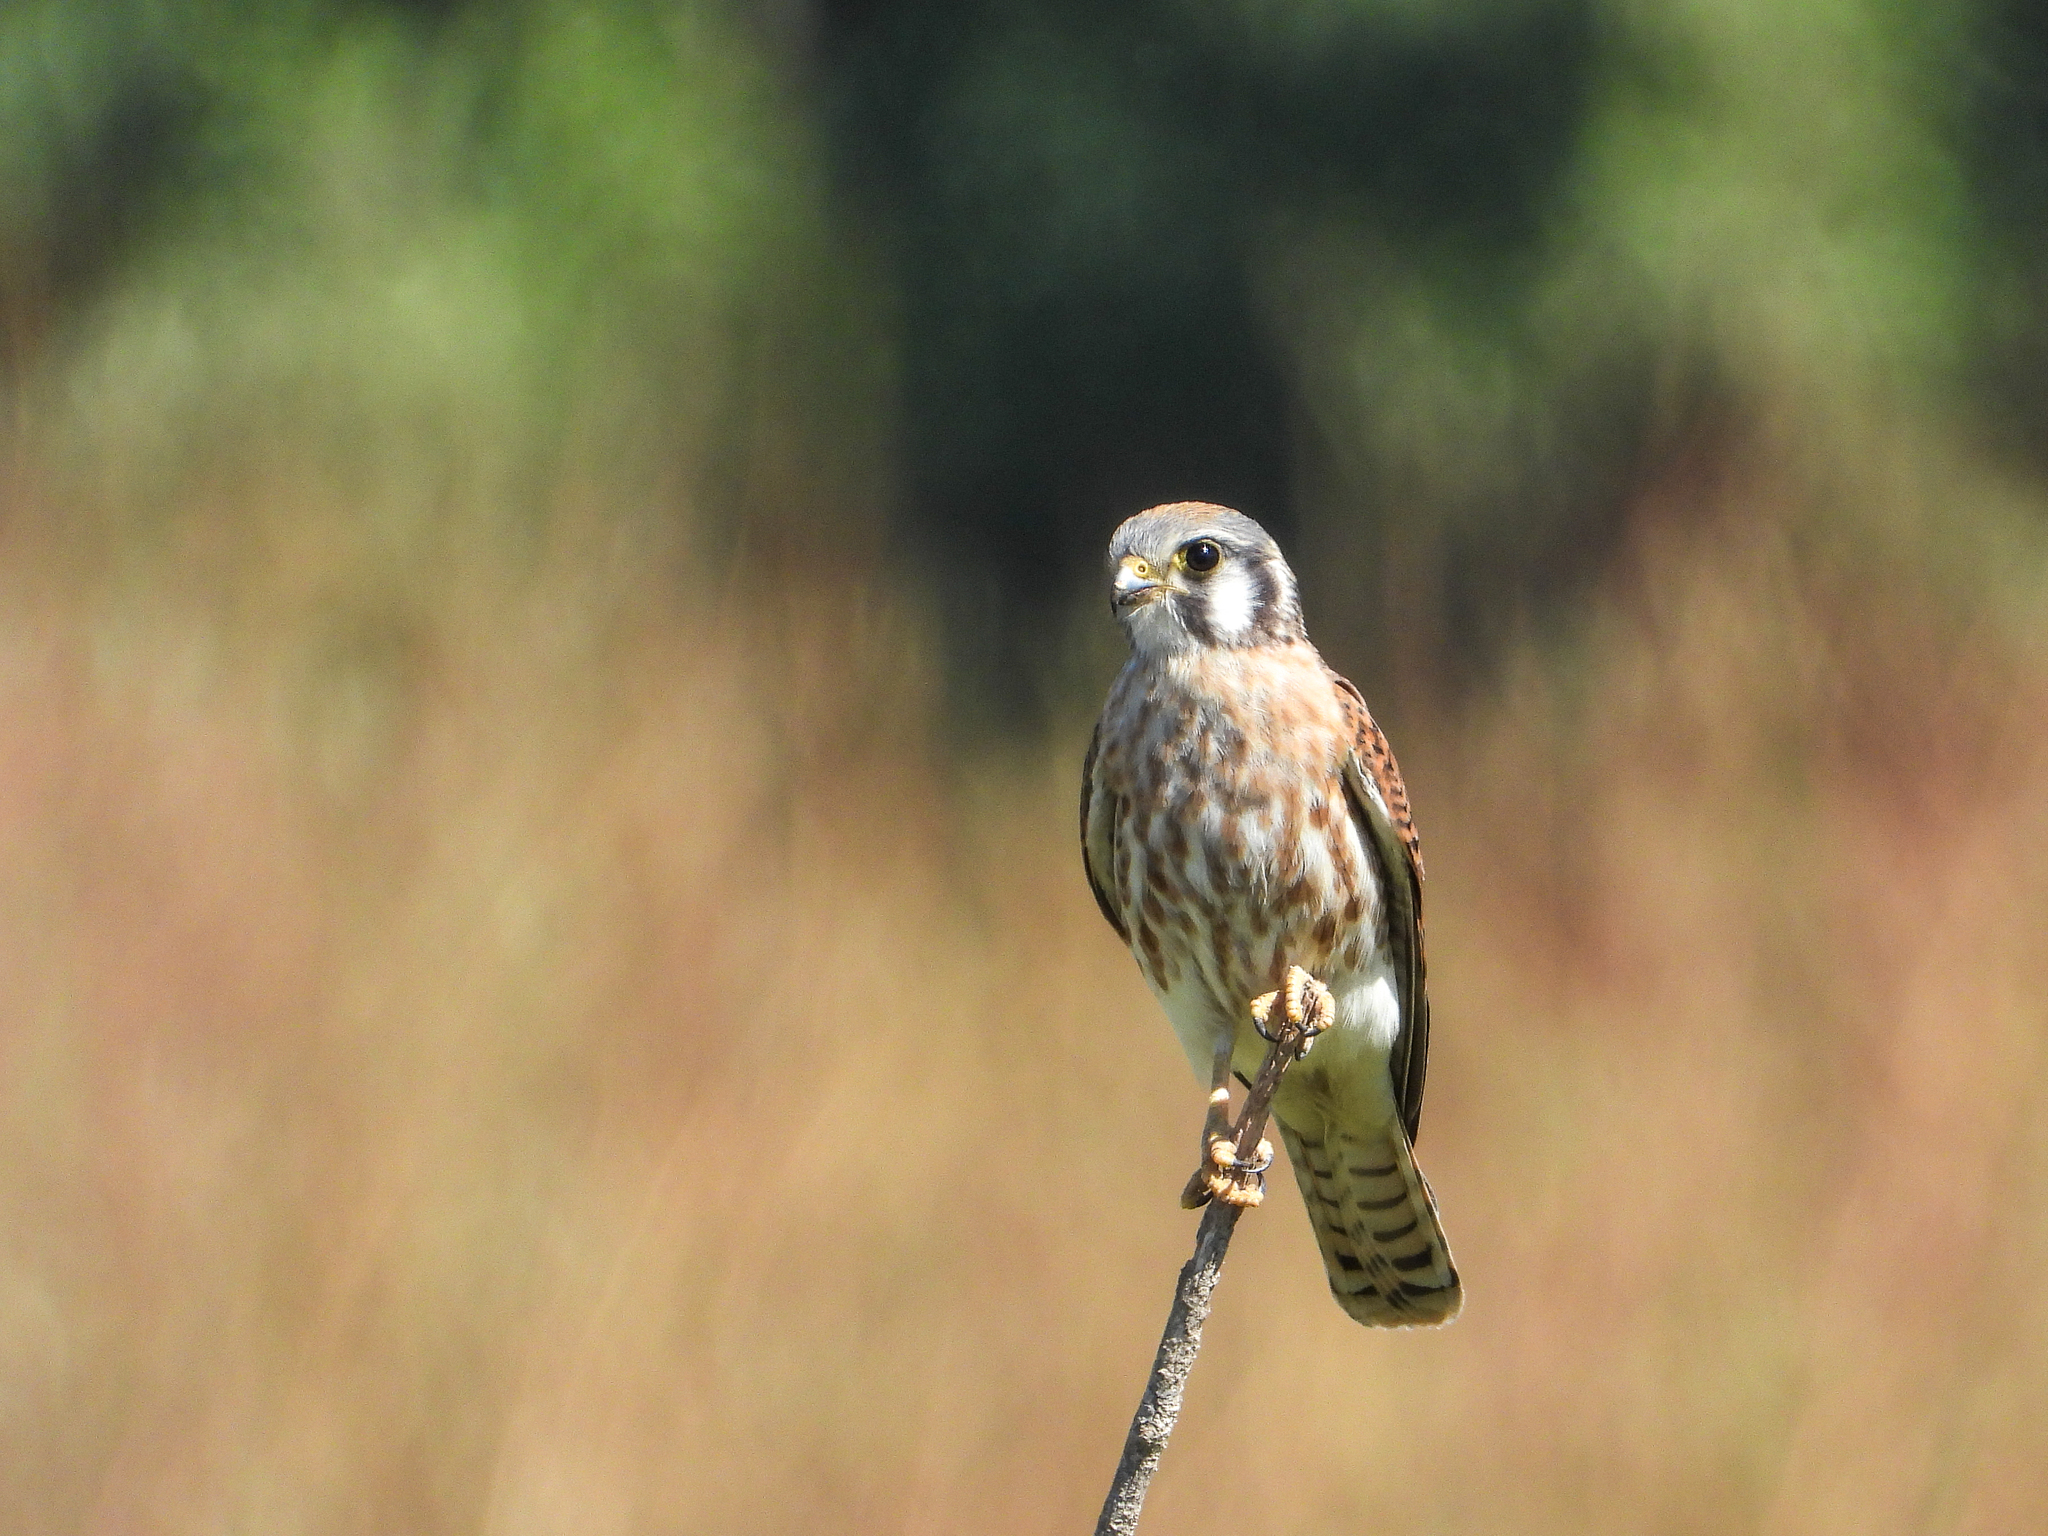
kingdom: Animalia
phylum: Chordata
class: Aves
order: Falconiformes
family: Falconidae
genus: Falco
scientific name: Falco sparverius
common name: American kestrel
